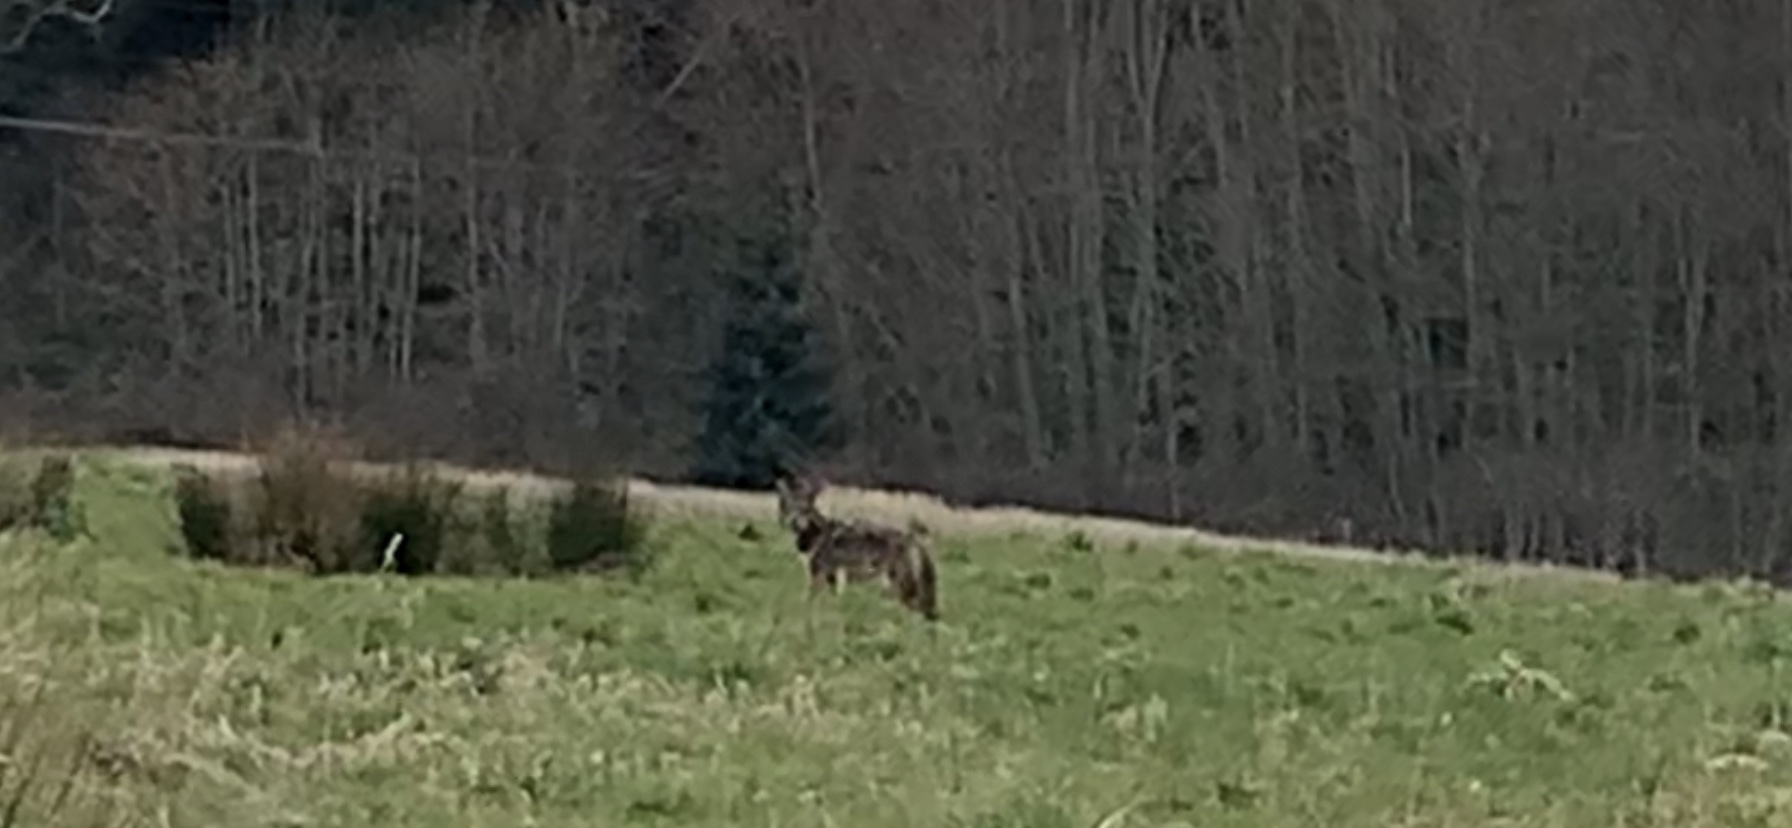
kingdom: Animalia
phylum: Chordata
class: Mammalia
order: Carnivora
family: Canidae
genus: Canis
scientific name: Canis latrans
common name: Coyote
